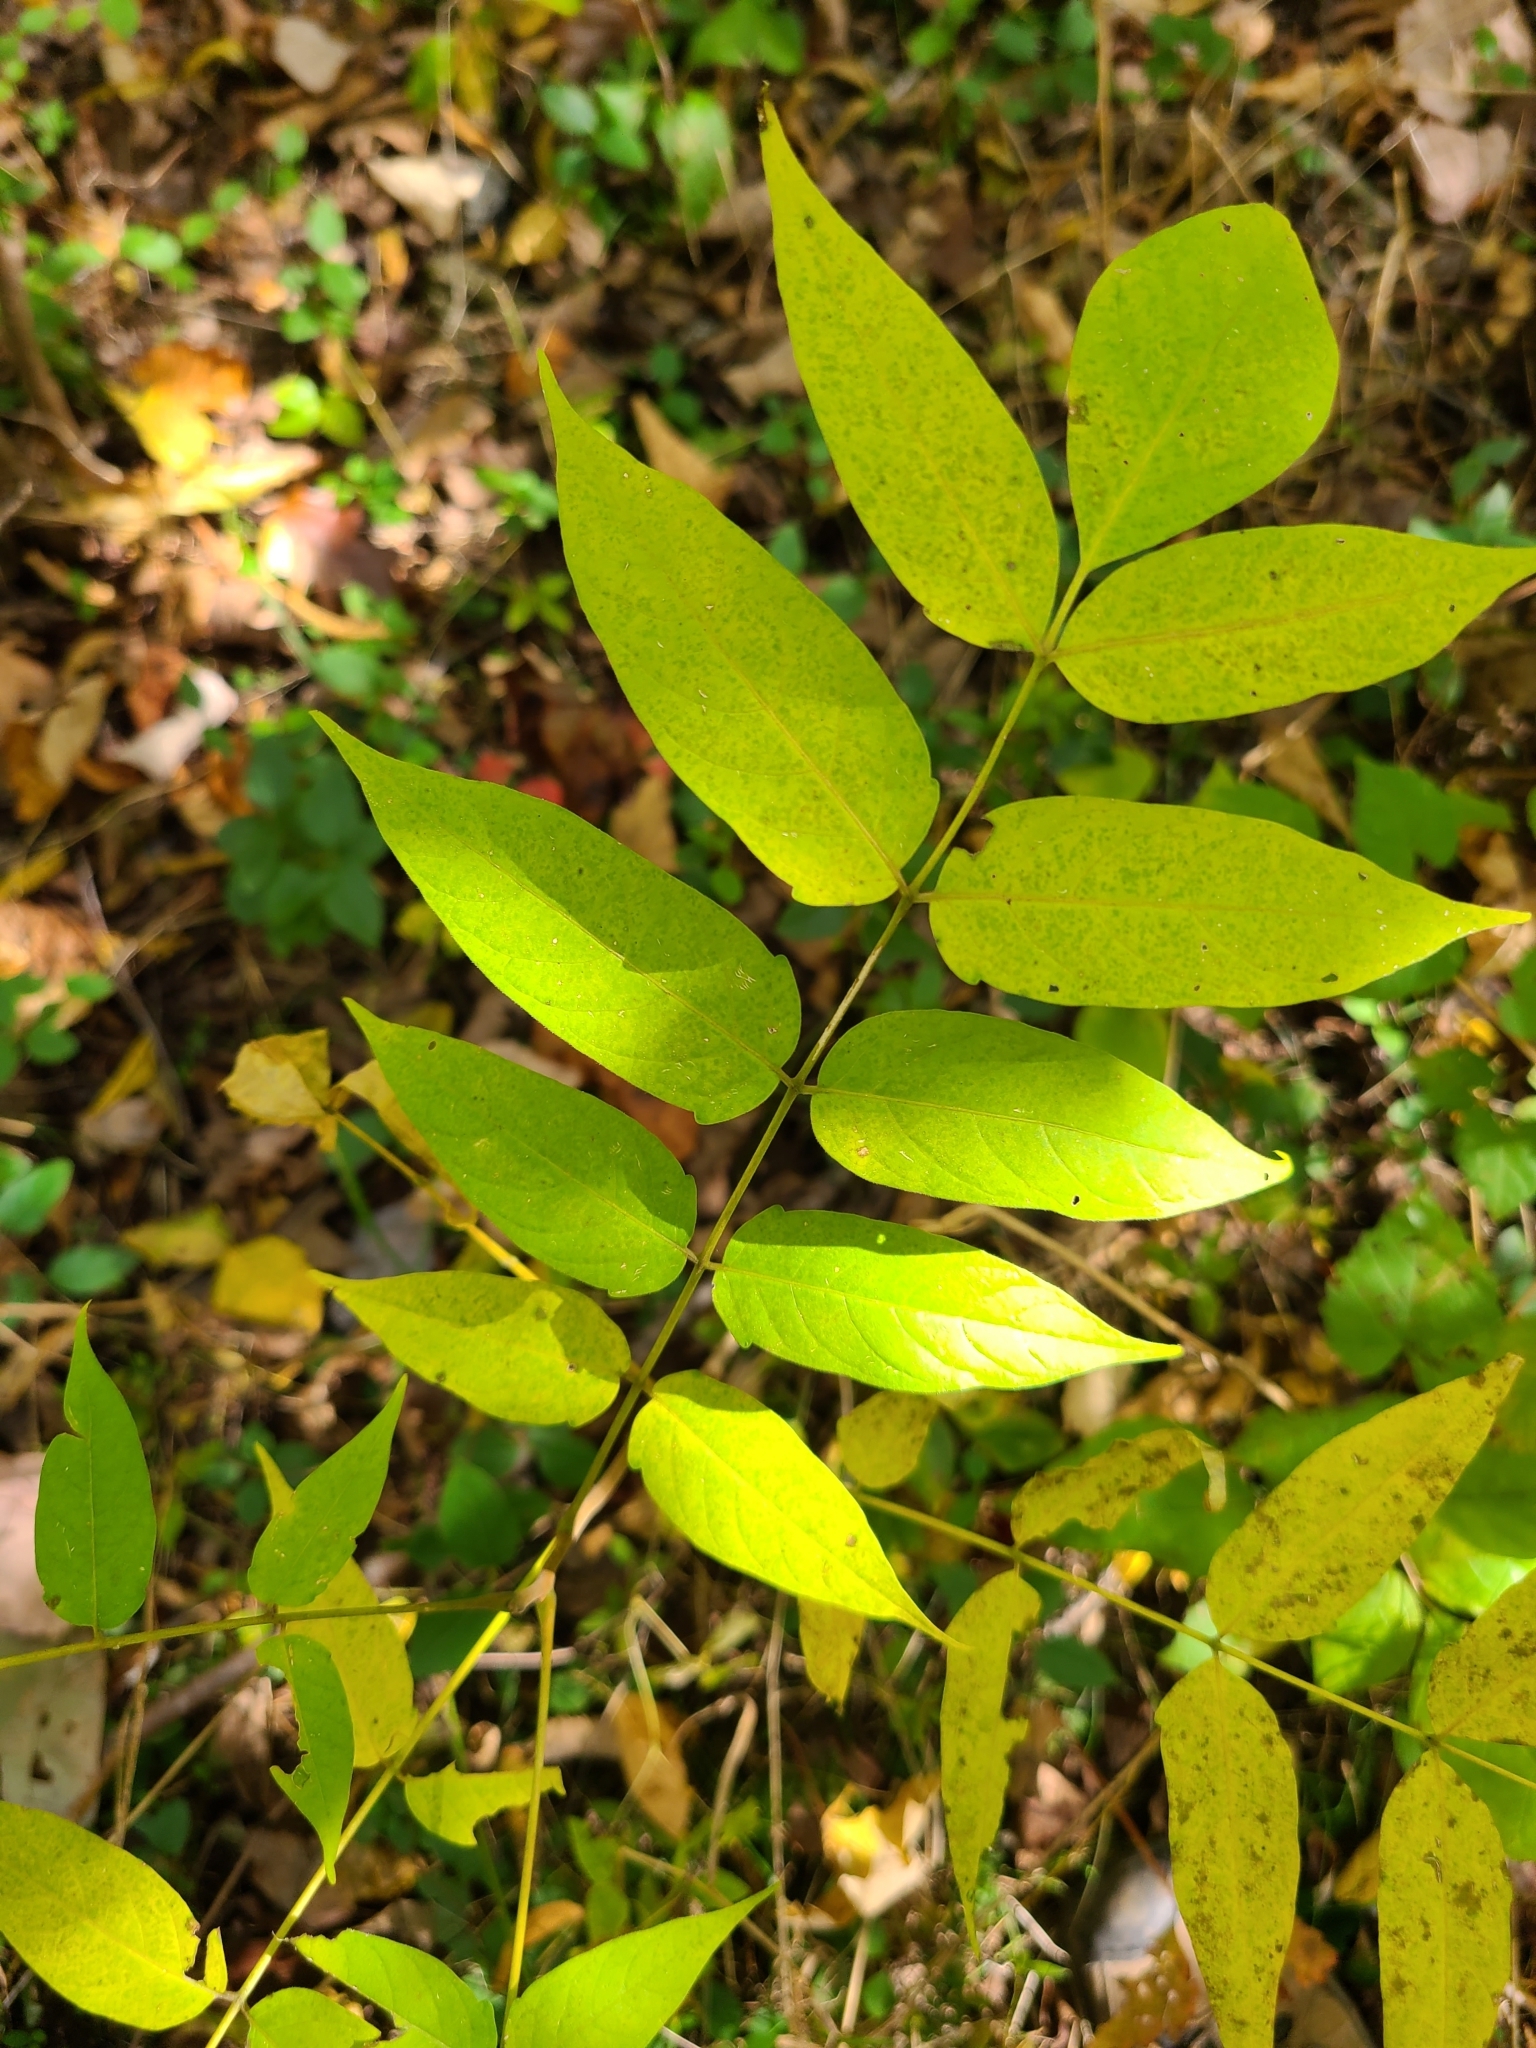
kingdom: Plantae
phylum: Tracheophyta
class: Magnoliopsida
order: Sapindales
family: Simaroubaceae
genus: Ailanthus
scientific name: Ailanthus altissima
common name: Tree-of-heaven
